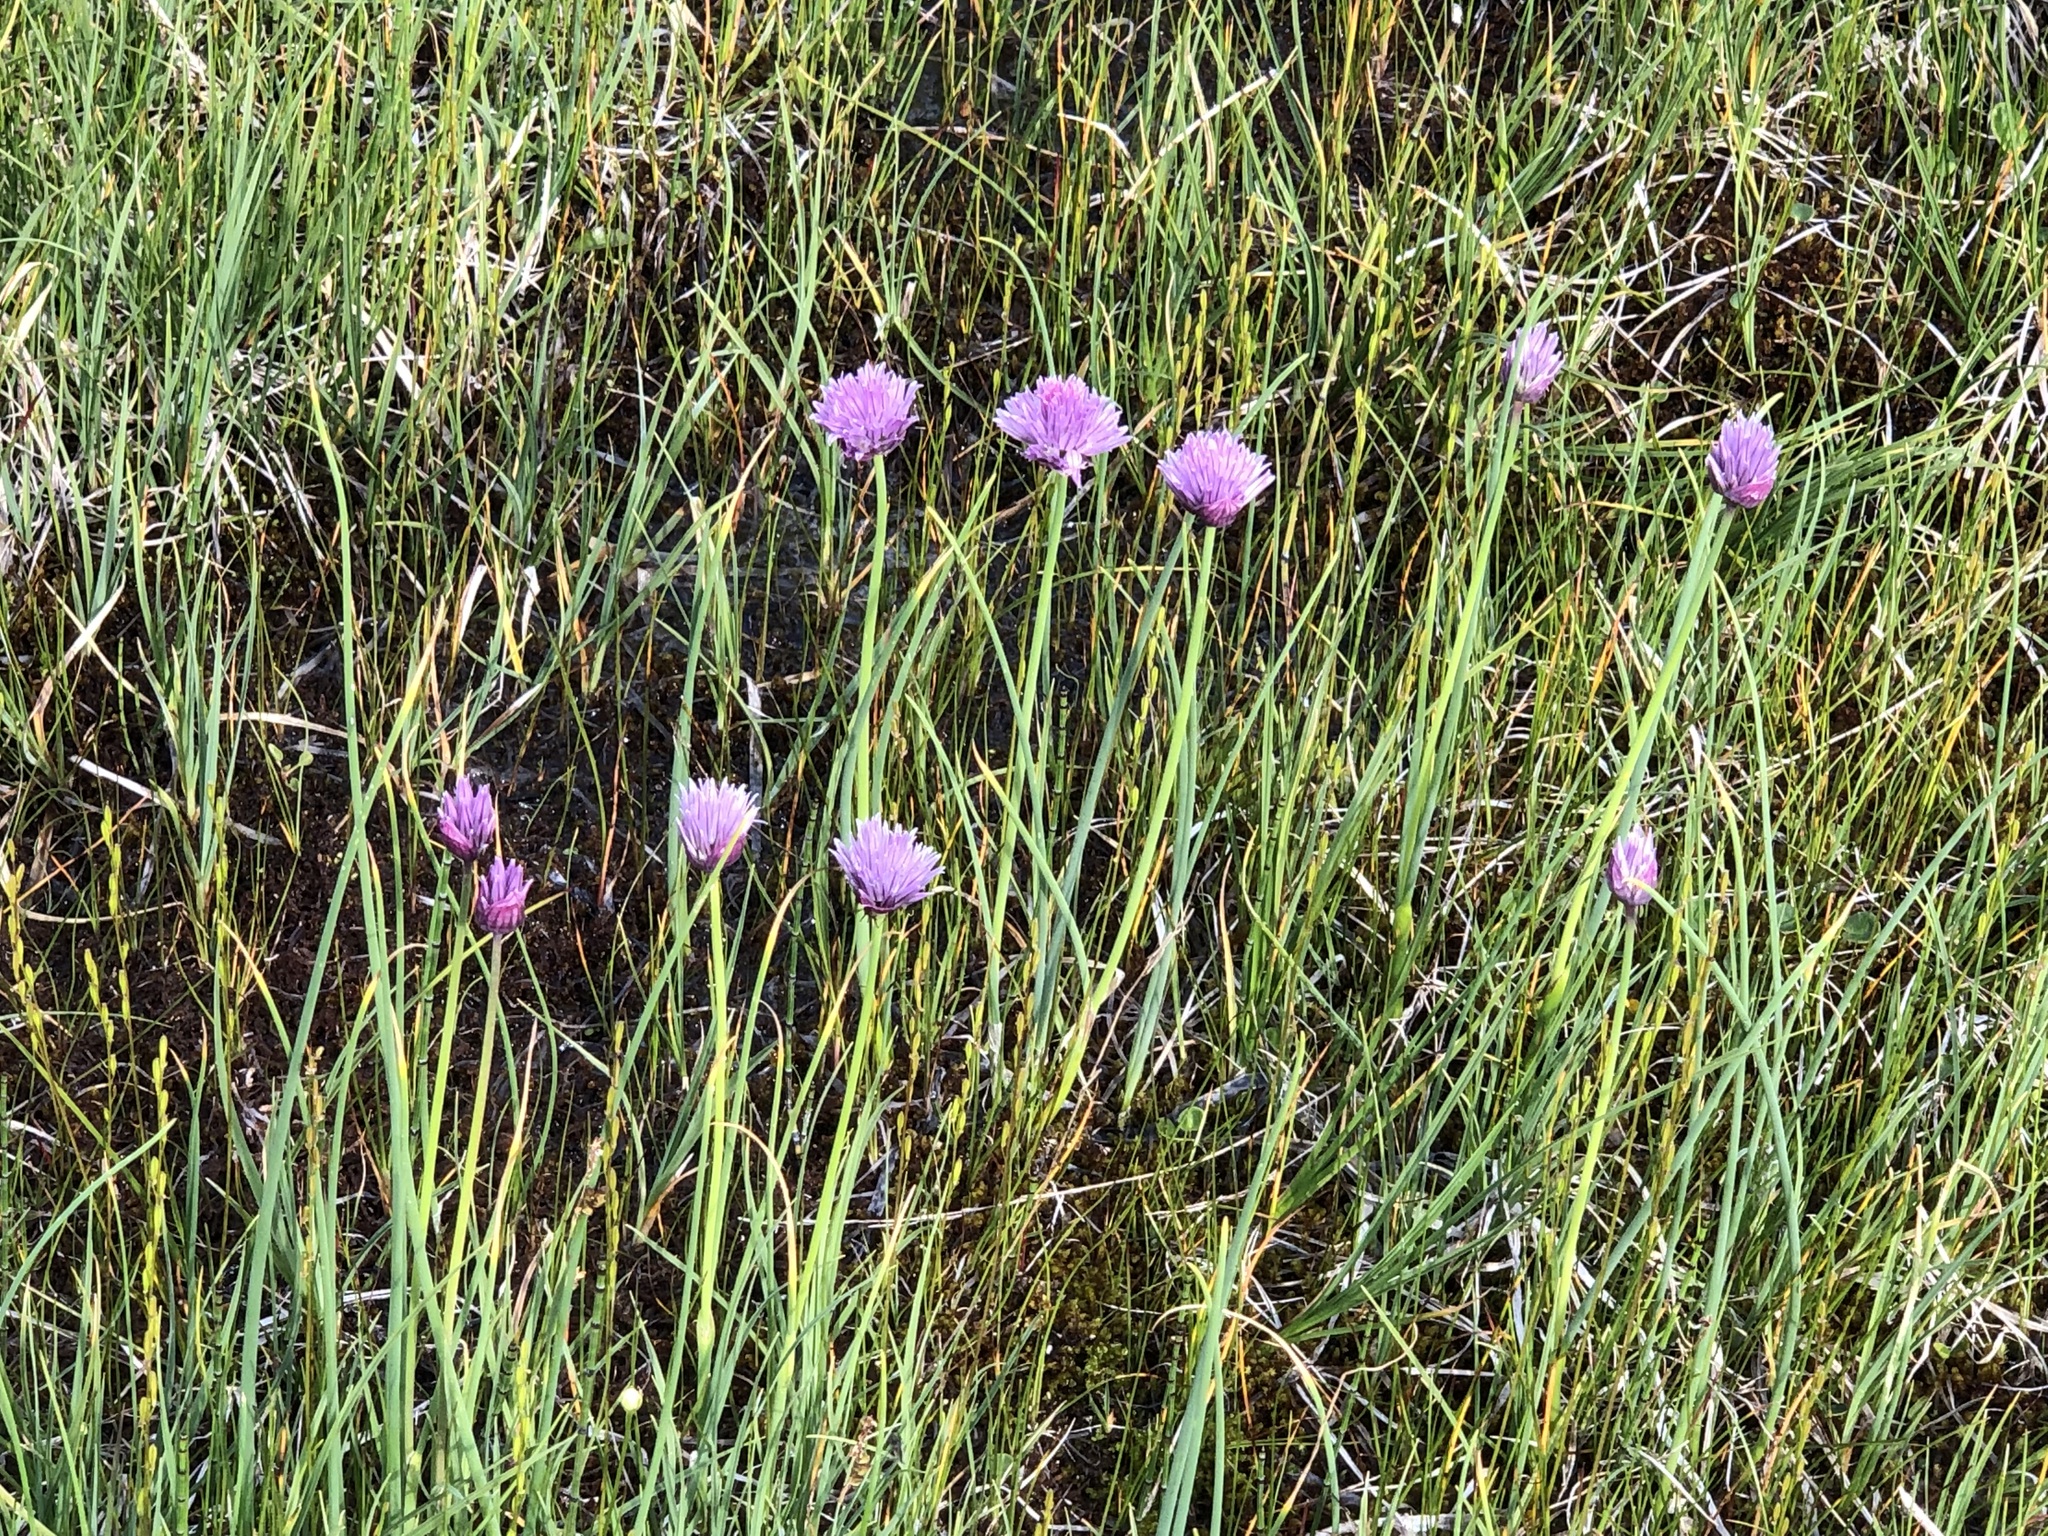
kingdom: Plantae
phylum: Tracheophyta
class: Liliopsida
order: Asparagales
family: Amaryllidaceae
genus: Allium
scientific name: Allium schoenoprasum
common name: Chives
